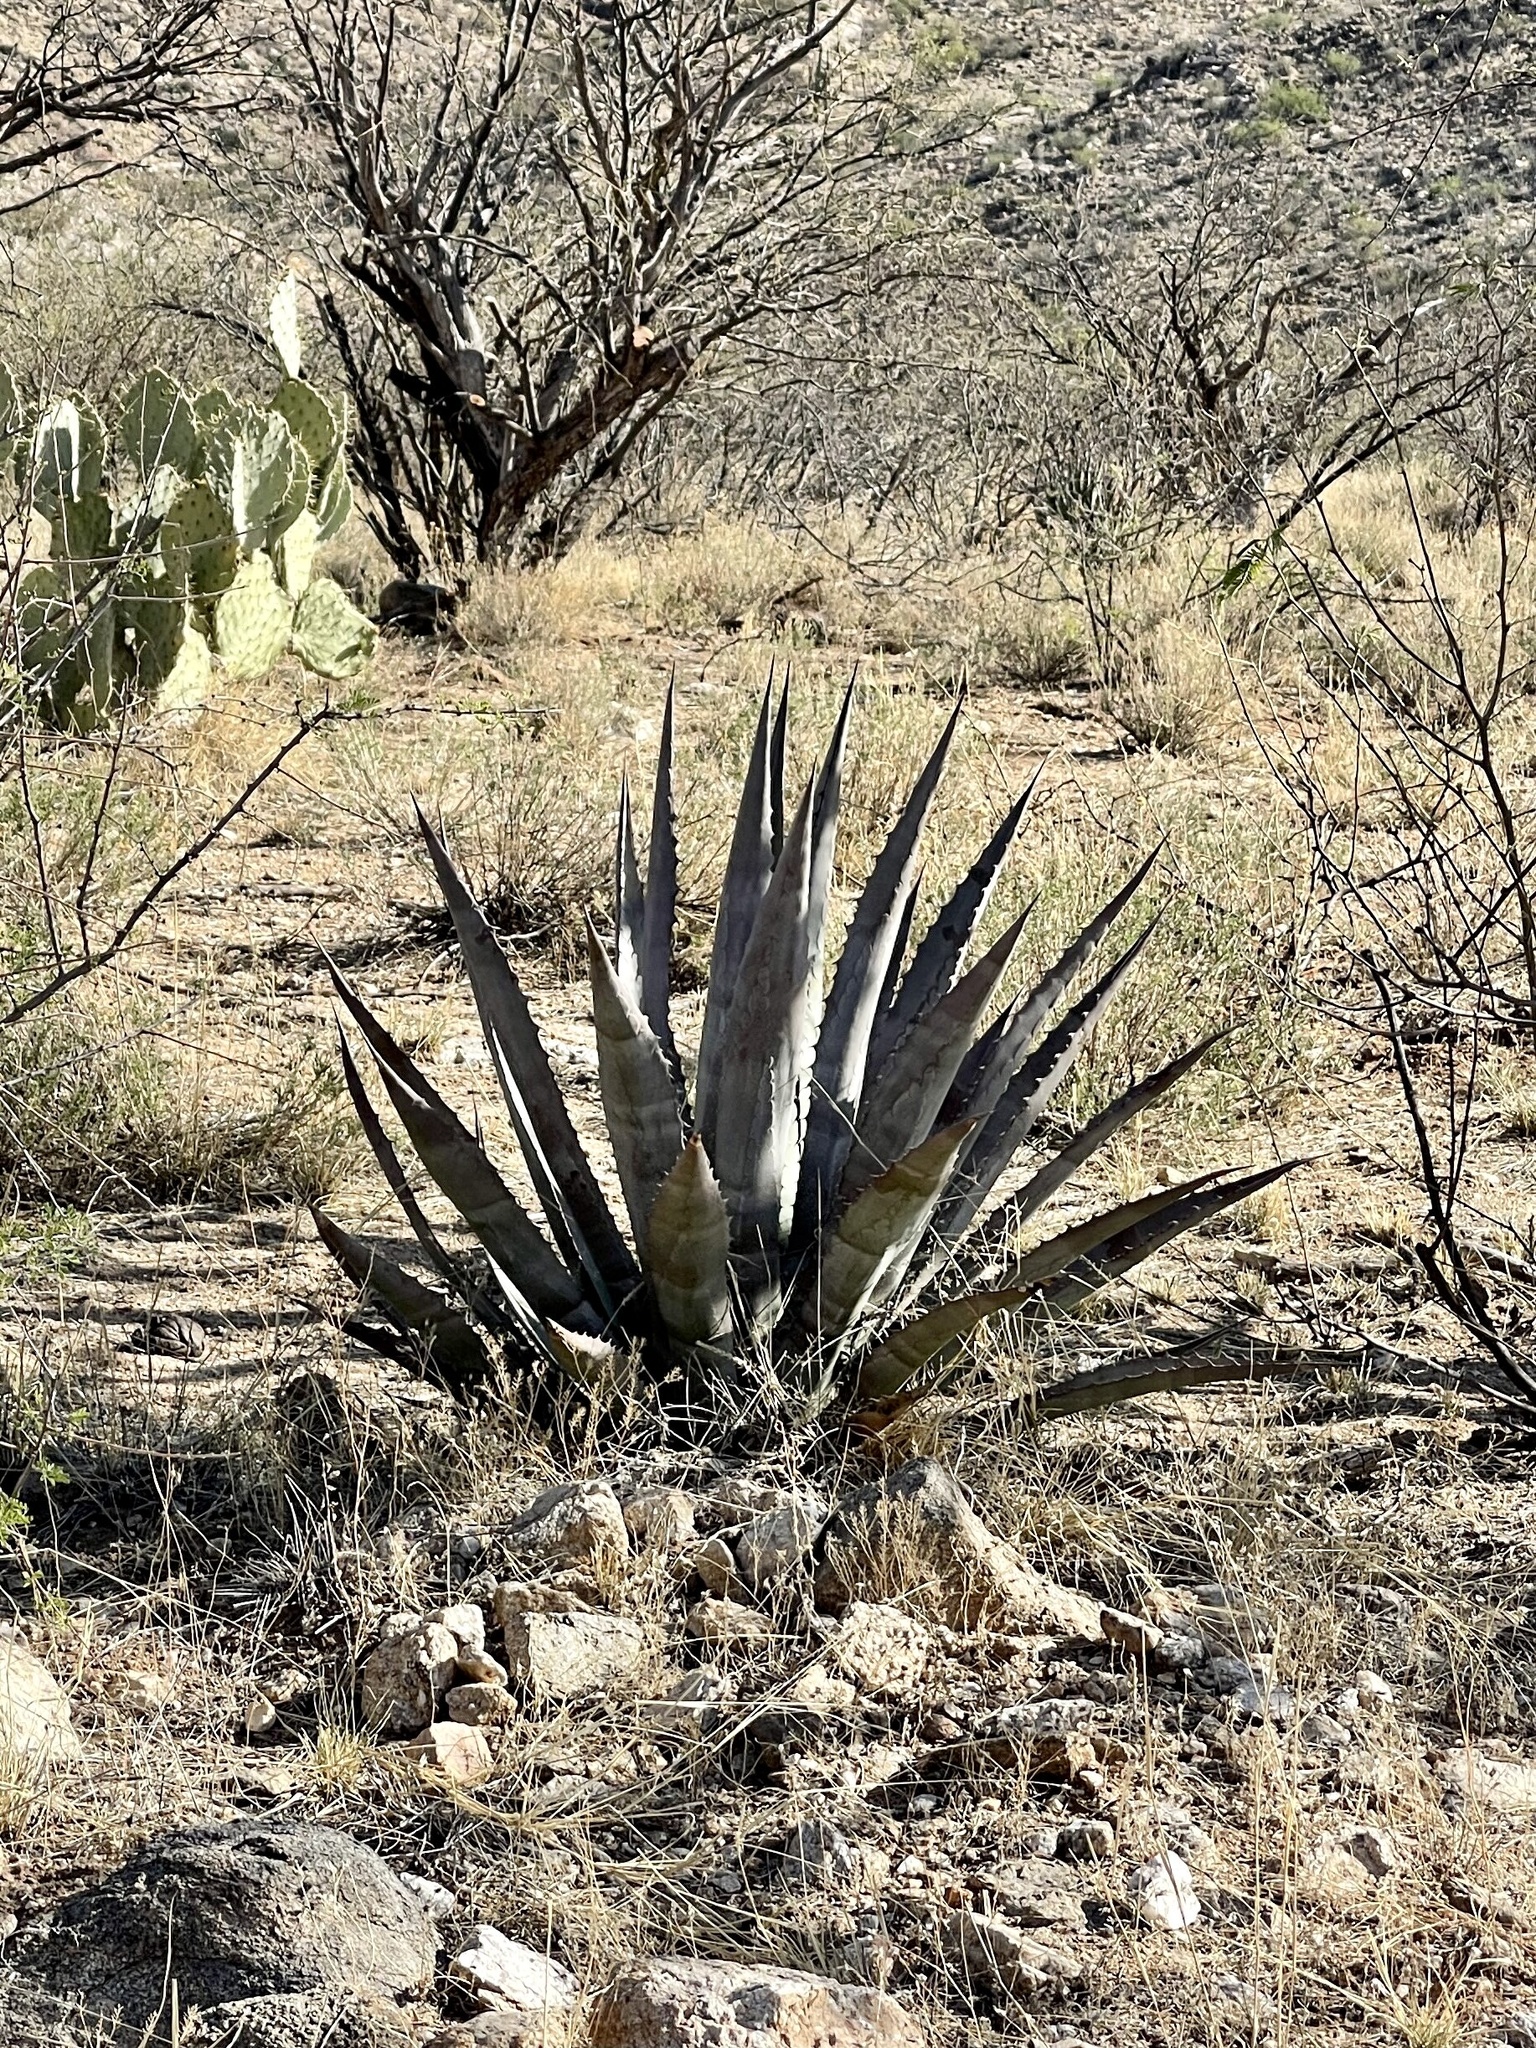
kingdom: Plantae
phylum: Tracheophyta
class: Liliopsida
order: Asparagales
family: Asparagaceae
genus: Agave
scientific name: Agave palmeri
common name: Palmer agave
